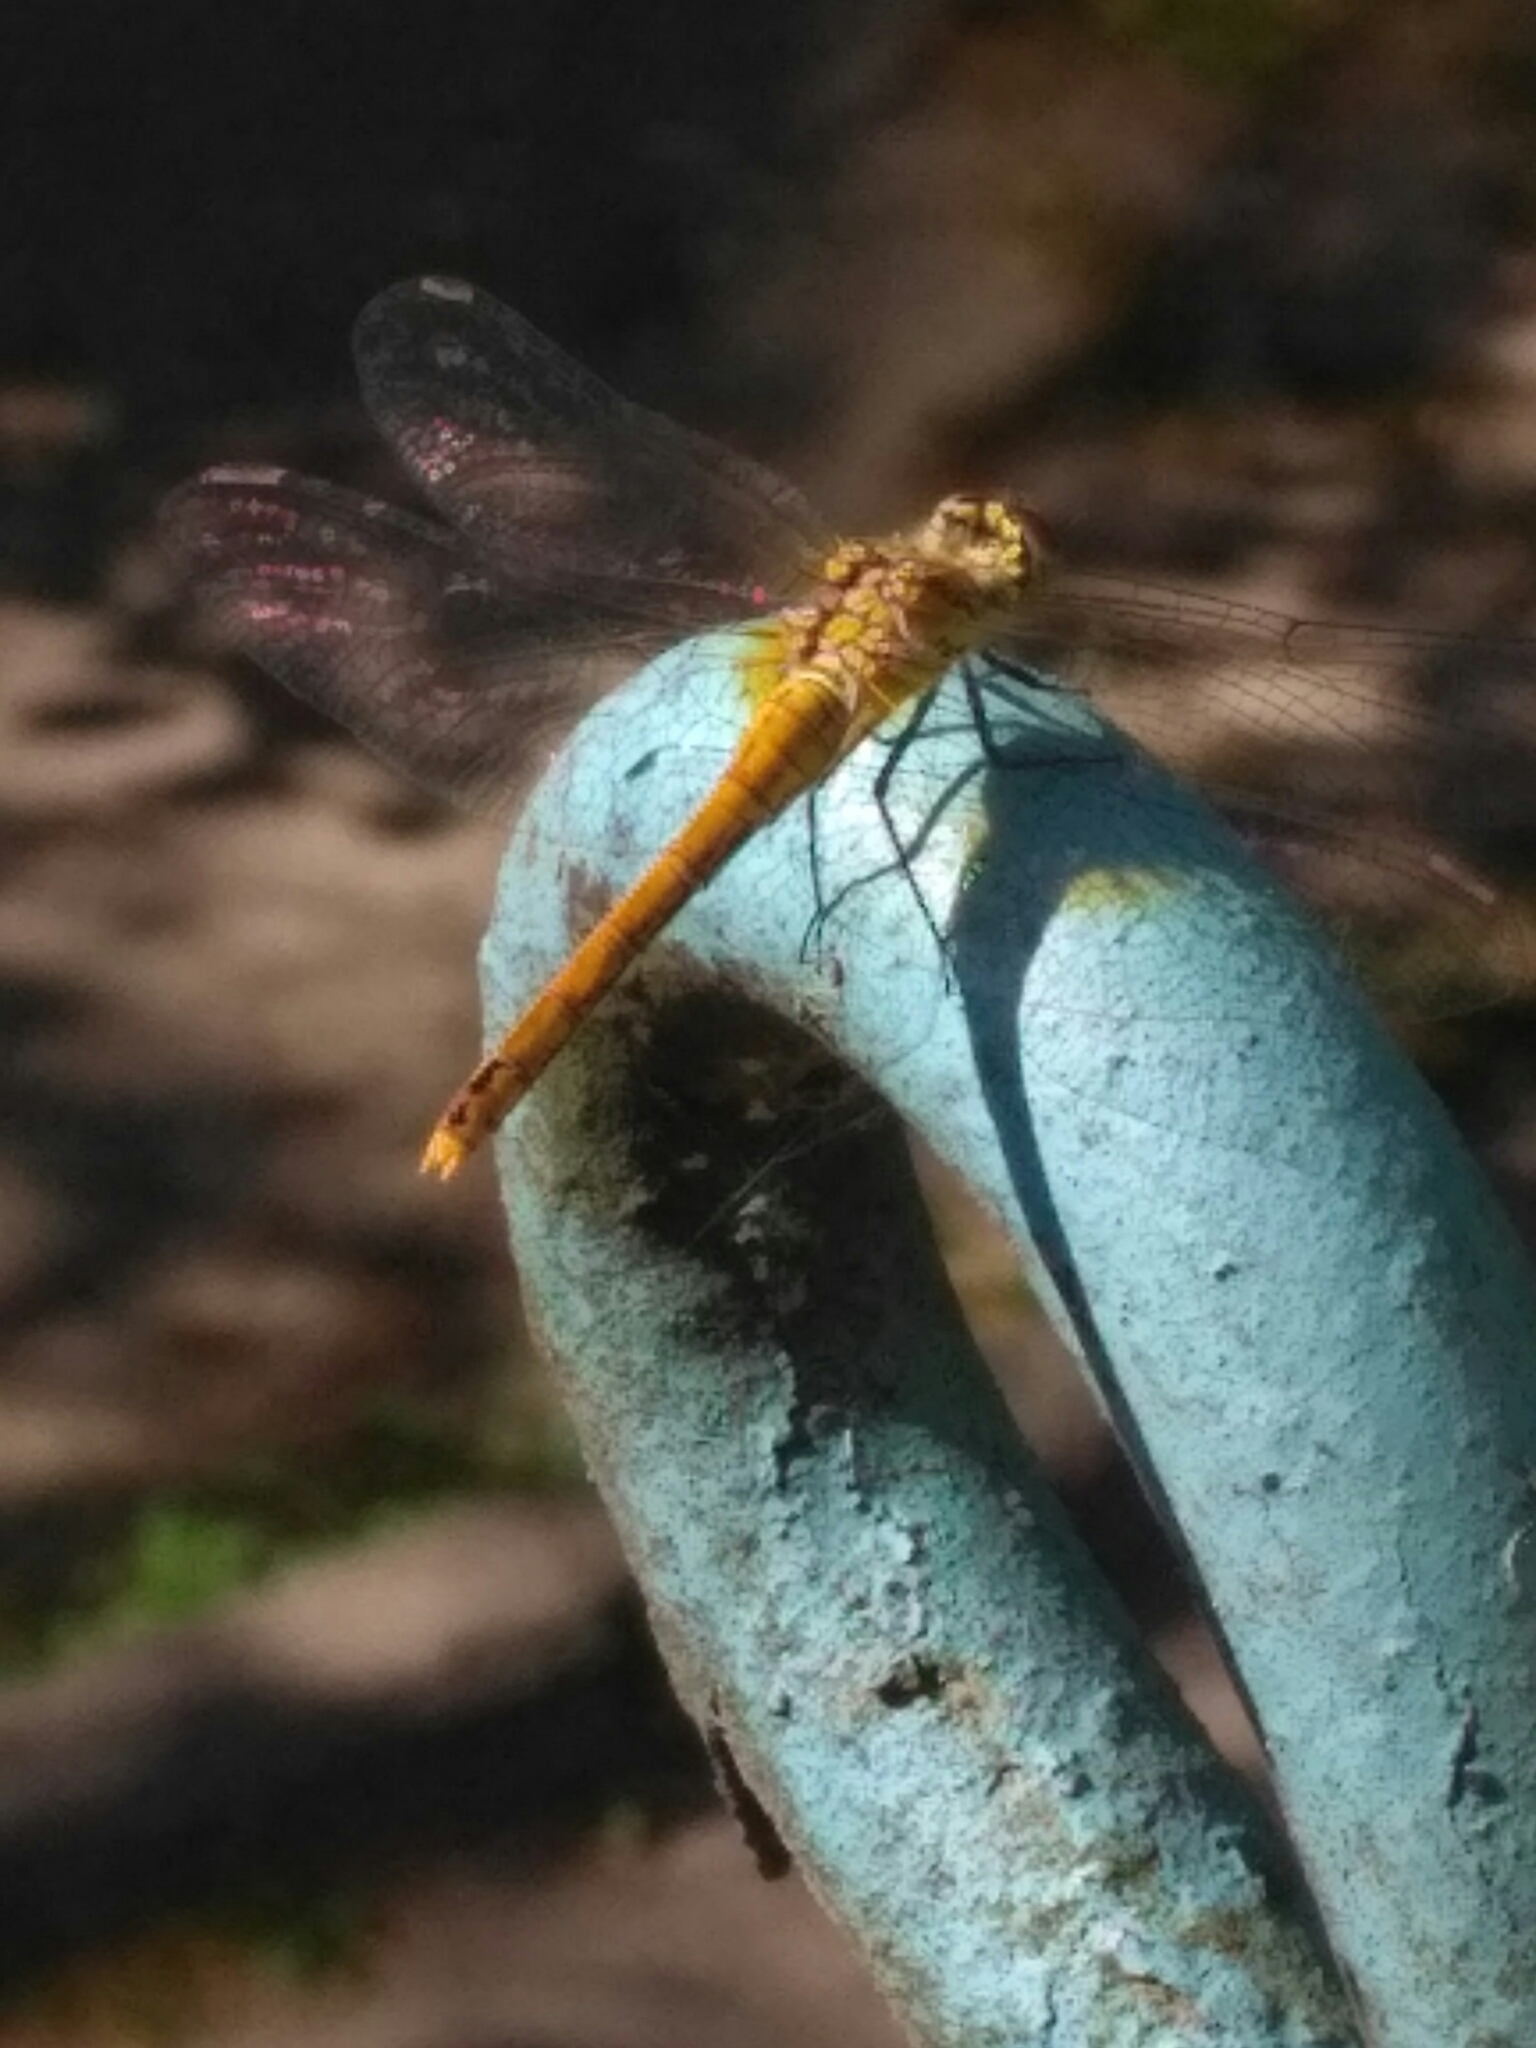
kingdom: Animalia
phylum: Arthropoda
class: Insecta
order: Odonata
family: Libellulidae
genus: Sympetrum
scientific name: Sympetrum sanguineum
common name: Ruddy darter
